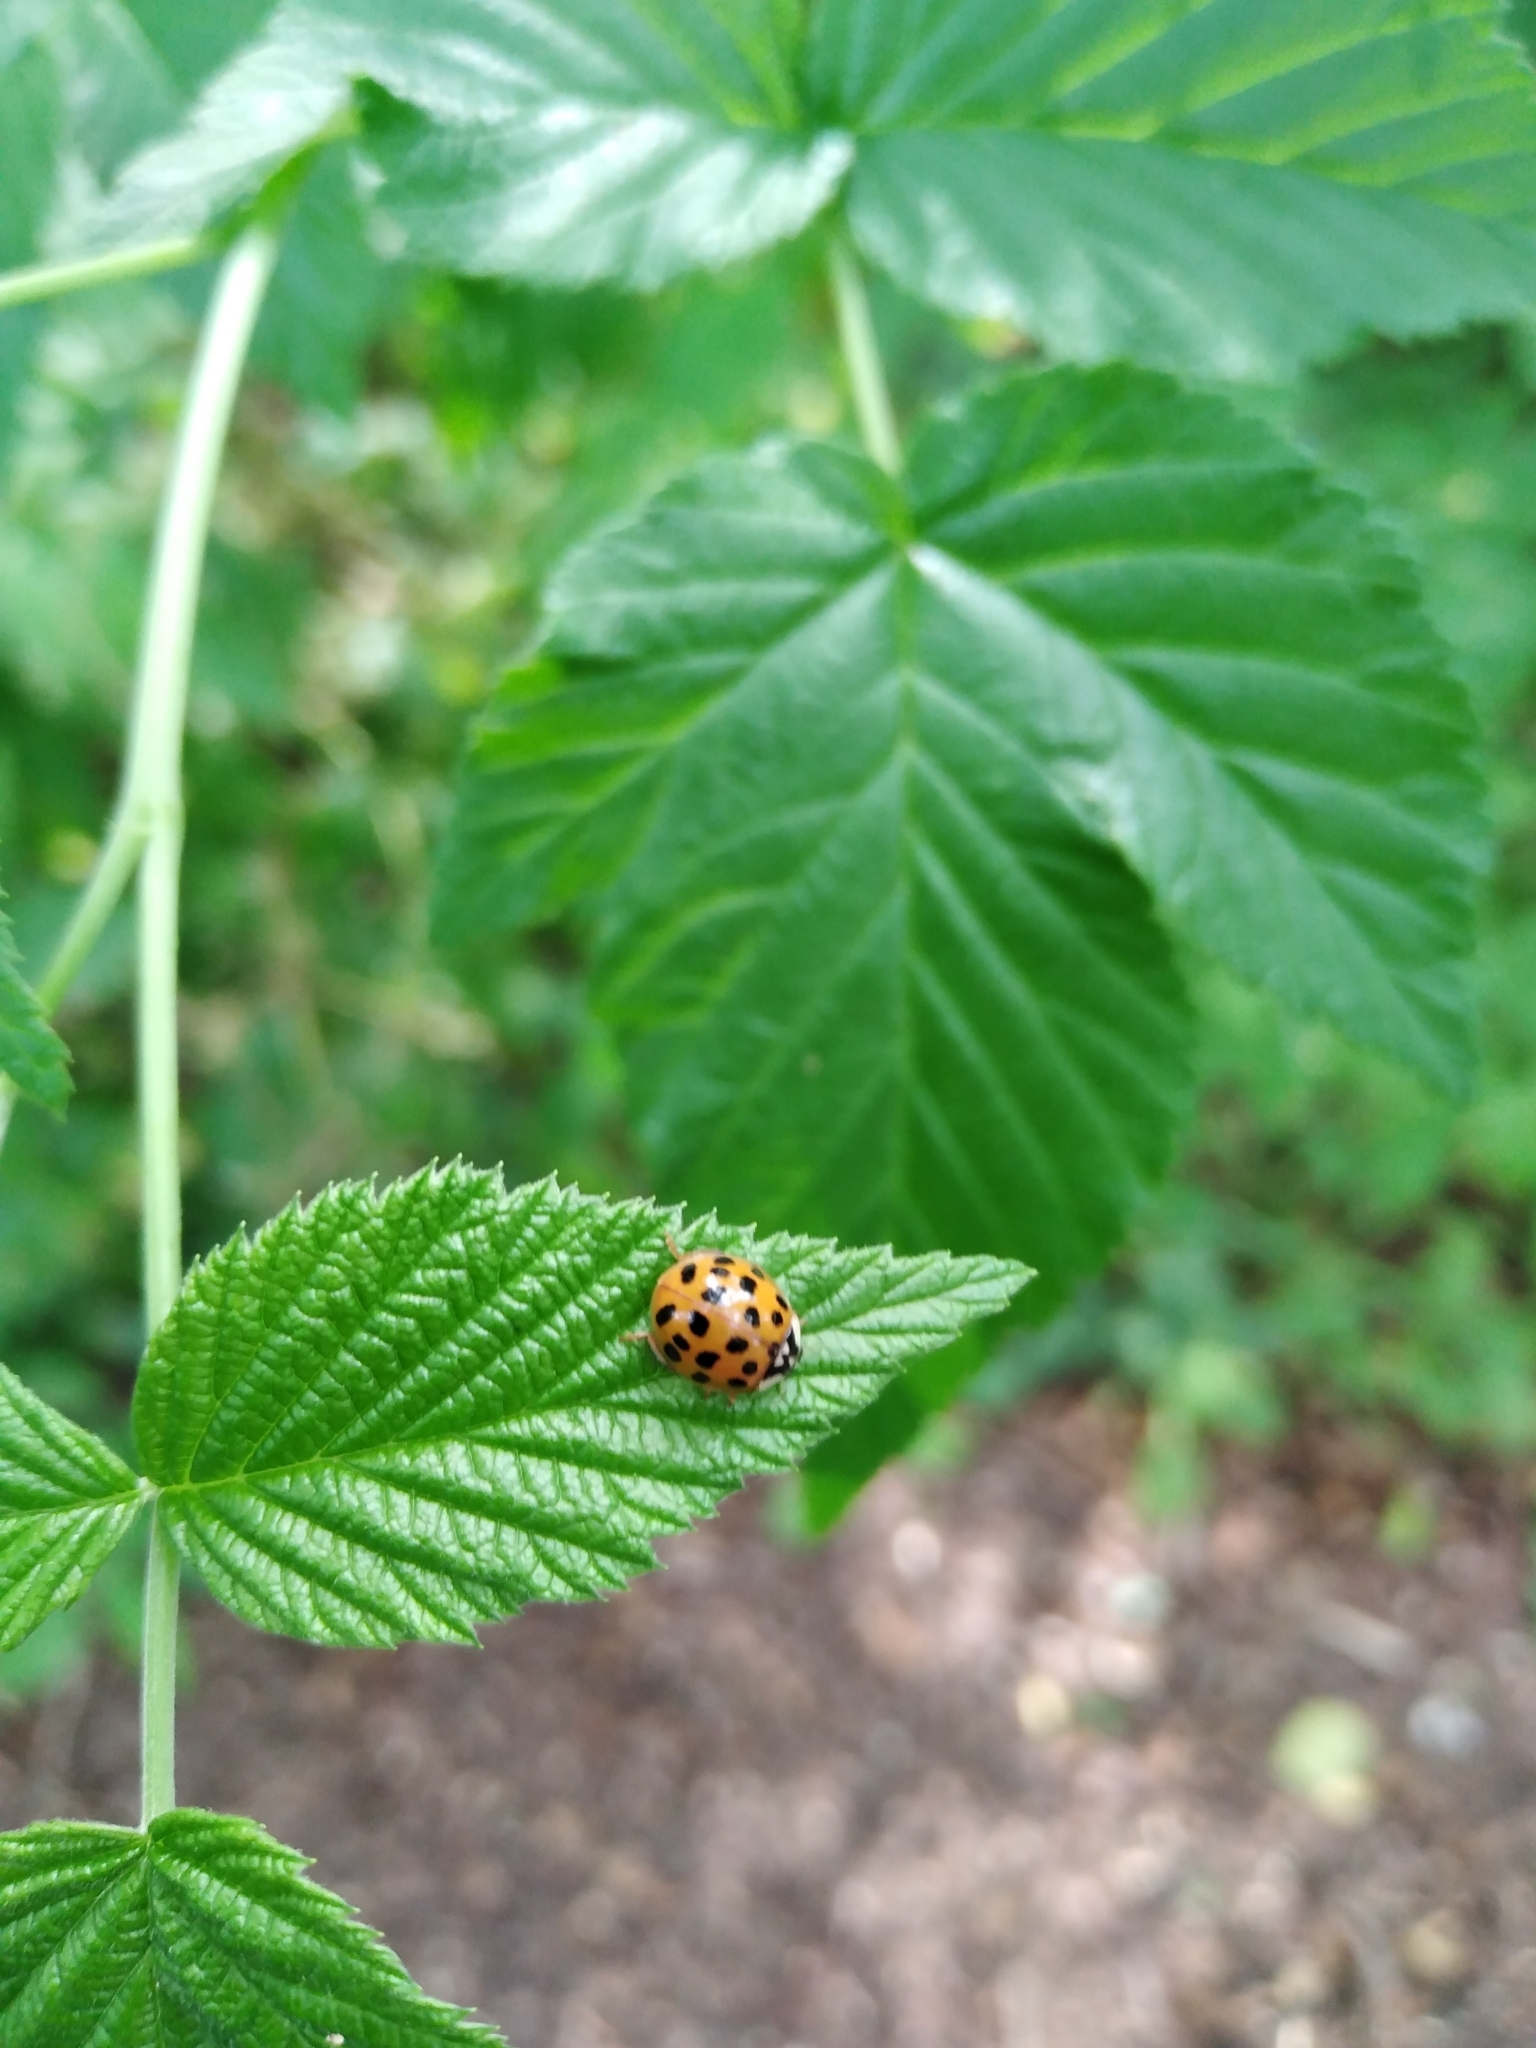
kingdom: Animalia
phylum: Arthropoda
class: Insecta
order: Coleoptera
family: Coccinellidae
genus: Harmonia
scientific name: Harmonia axyridis
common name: Harlequin ladybird
